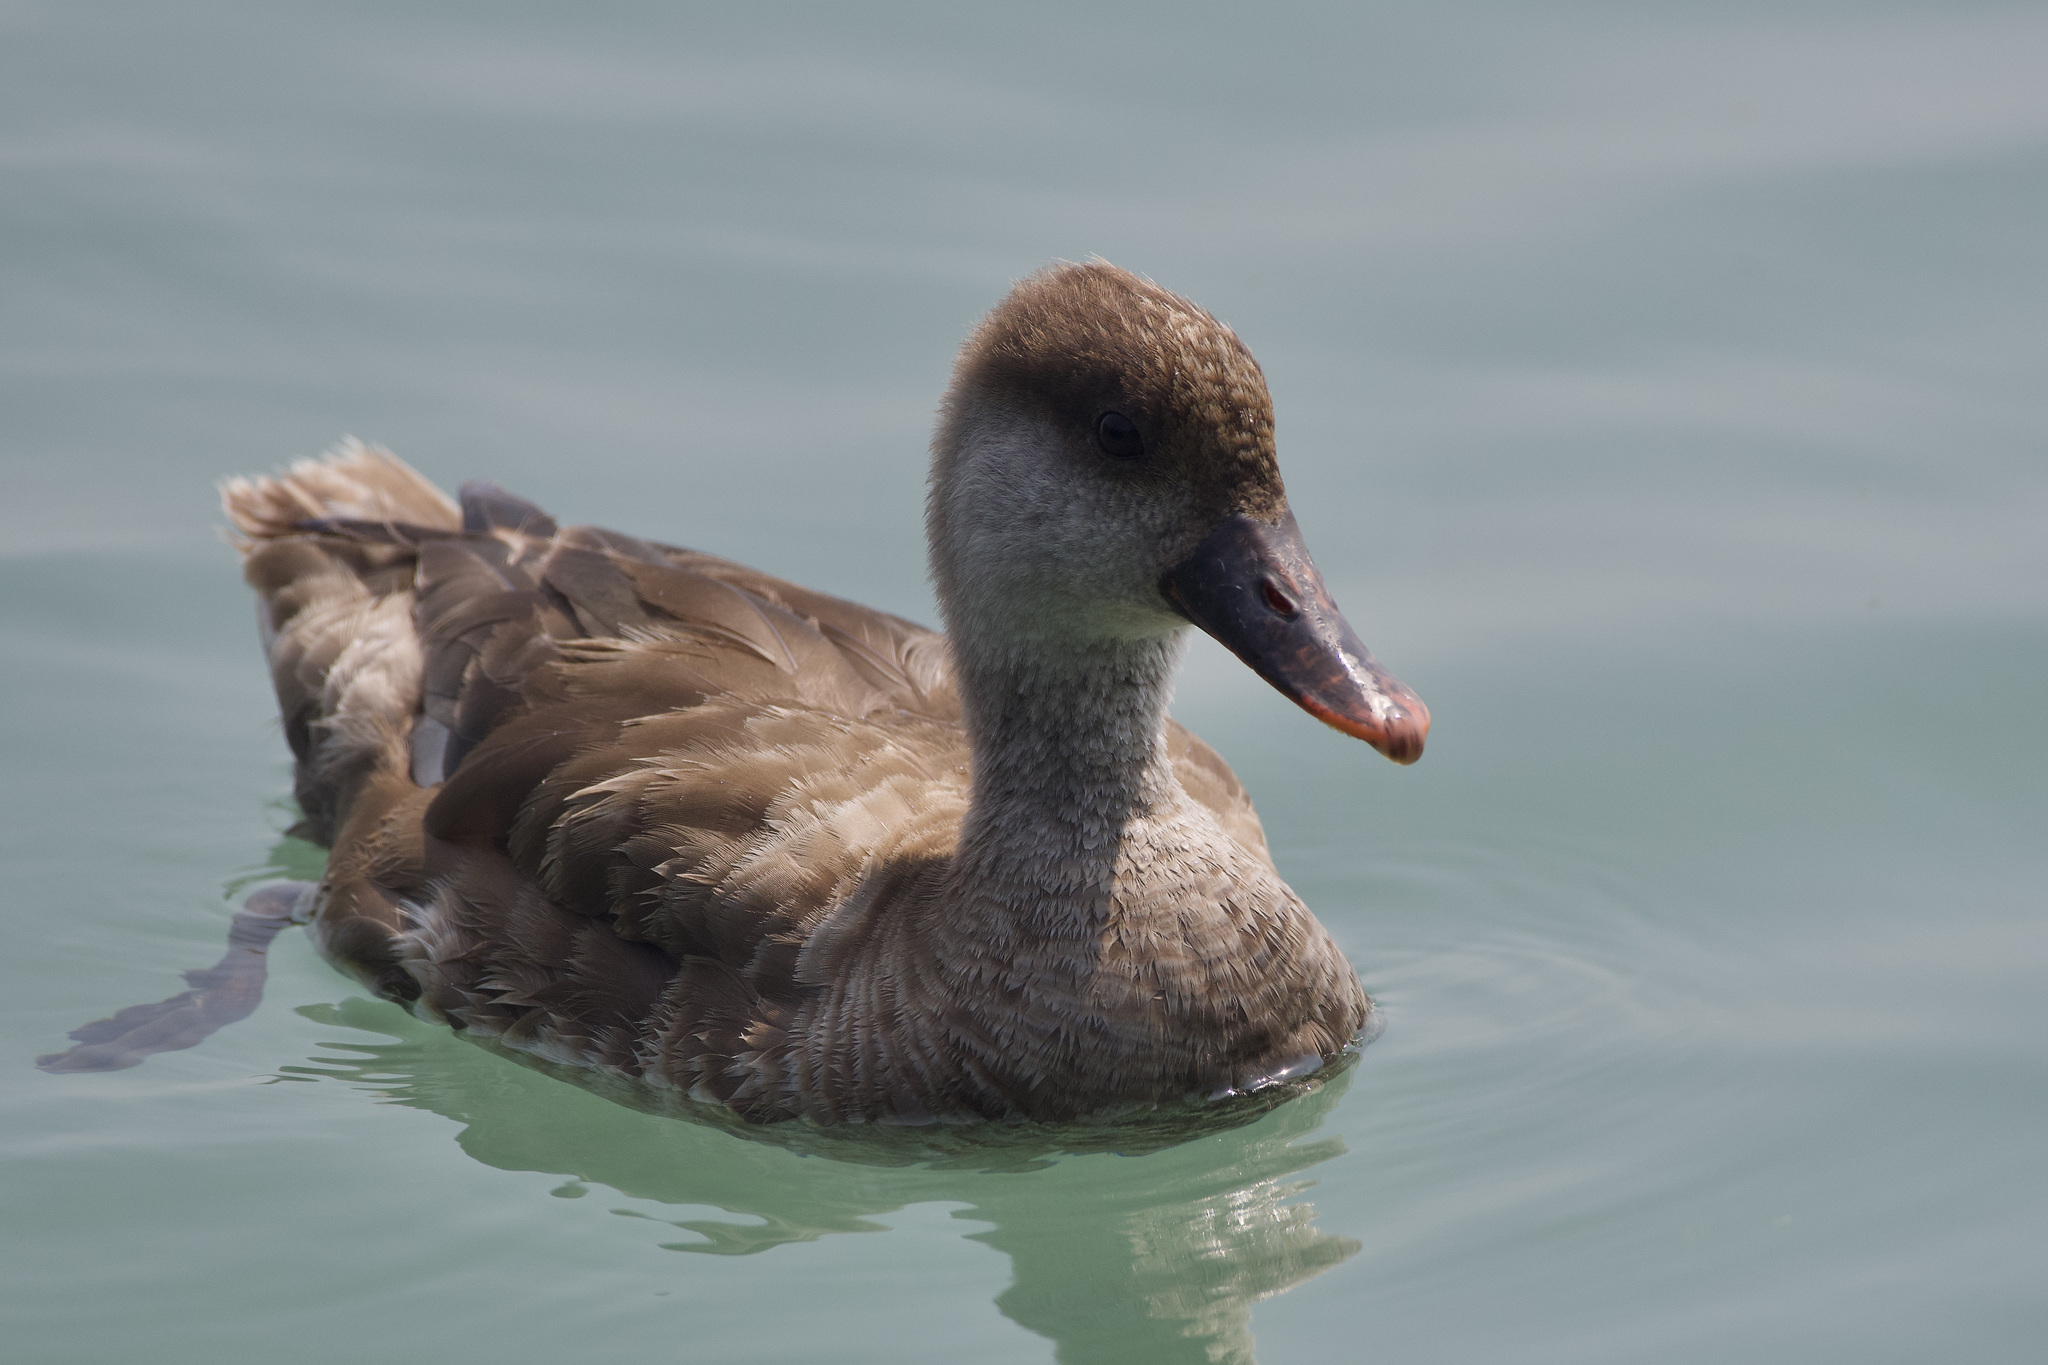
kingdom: Animalia
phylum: Chordata
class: Aves
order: Anseriformes
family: Anatidae
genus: Netta
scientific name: Netta rufina
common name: Red-crested pochard
